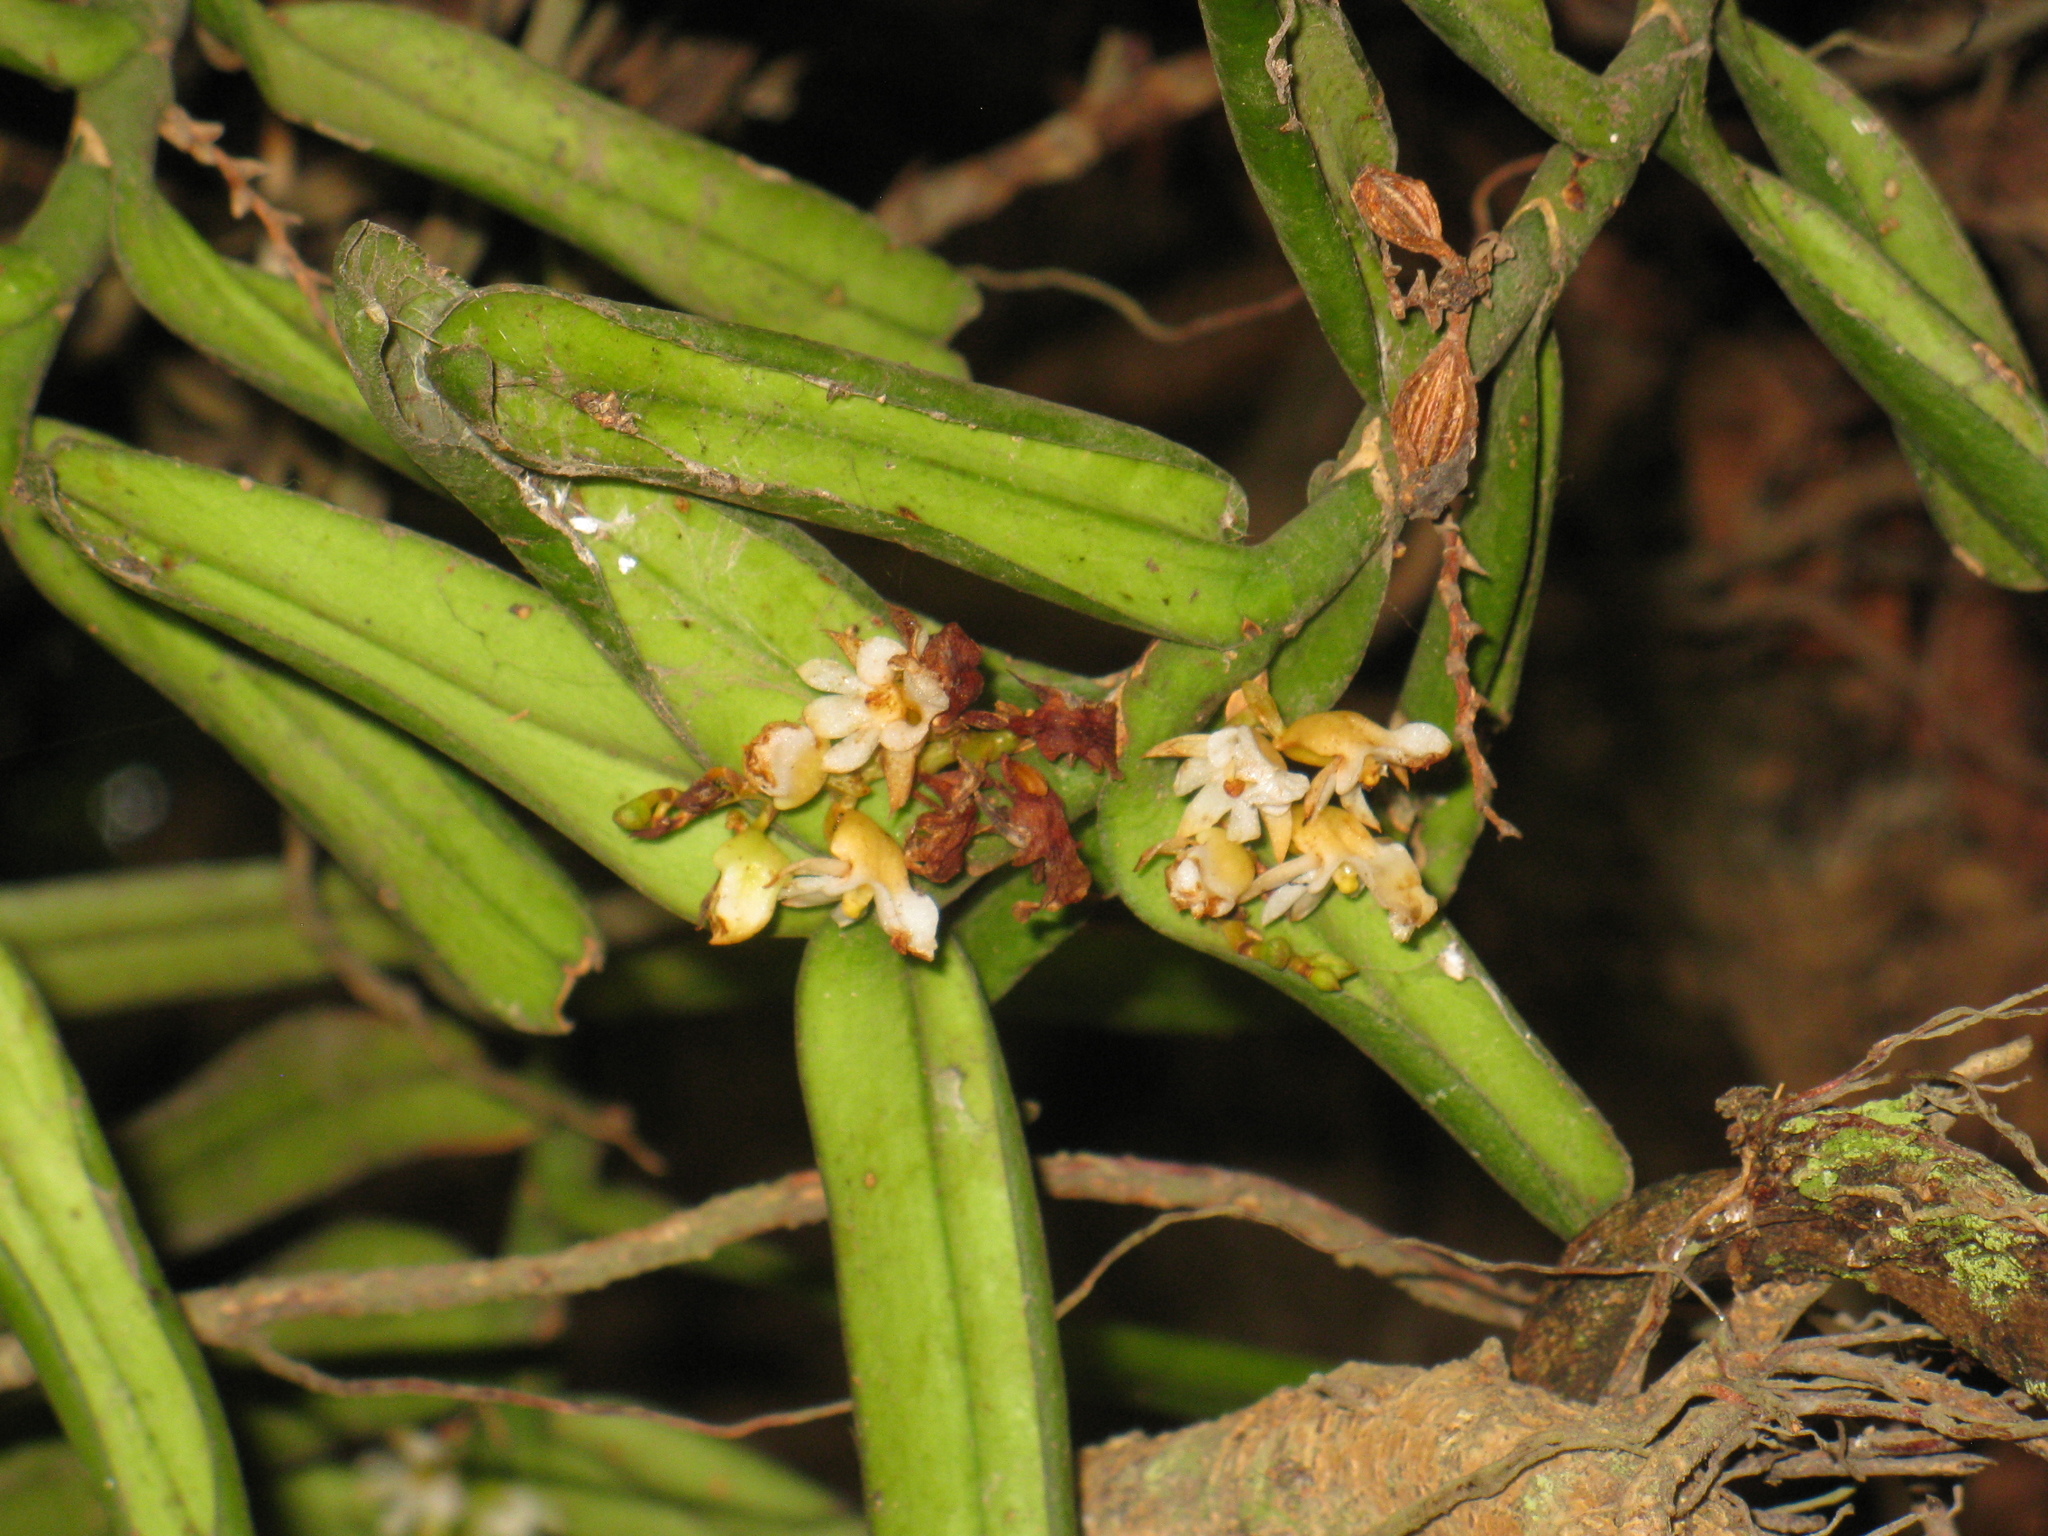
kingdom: Plantae
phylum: Tracheophyta
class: Liliopsida
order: Asparagales
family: Orchidaceae
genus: Calyptrochilum
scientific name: Calyptrochilum christyanum
